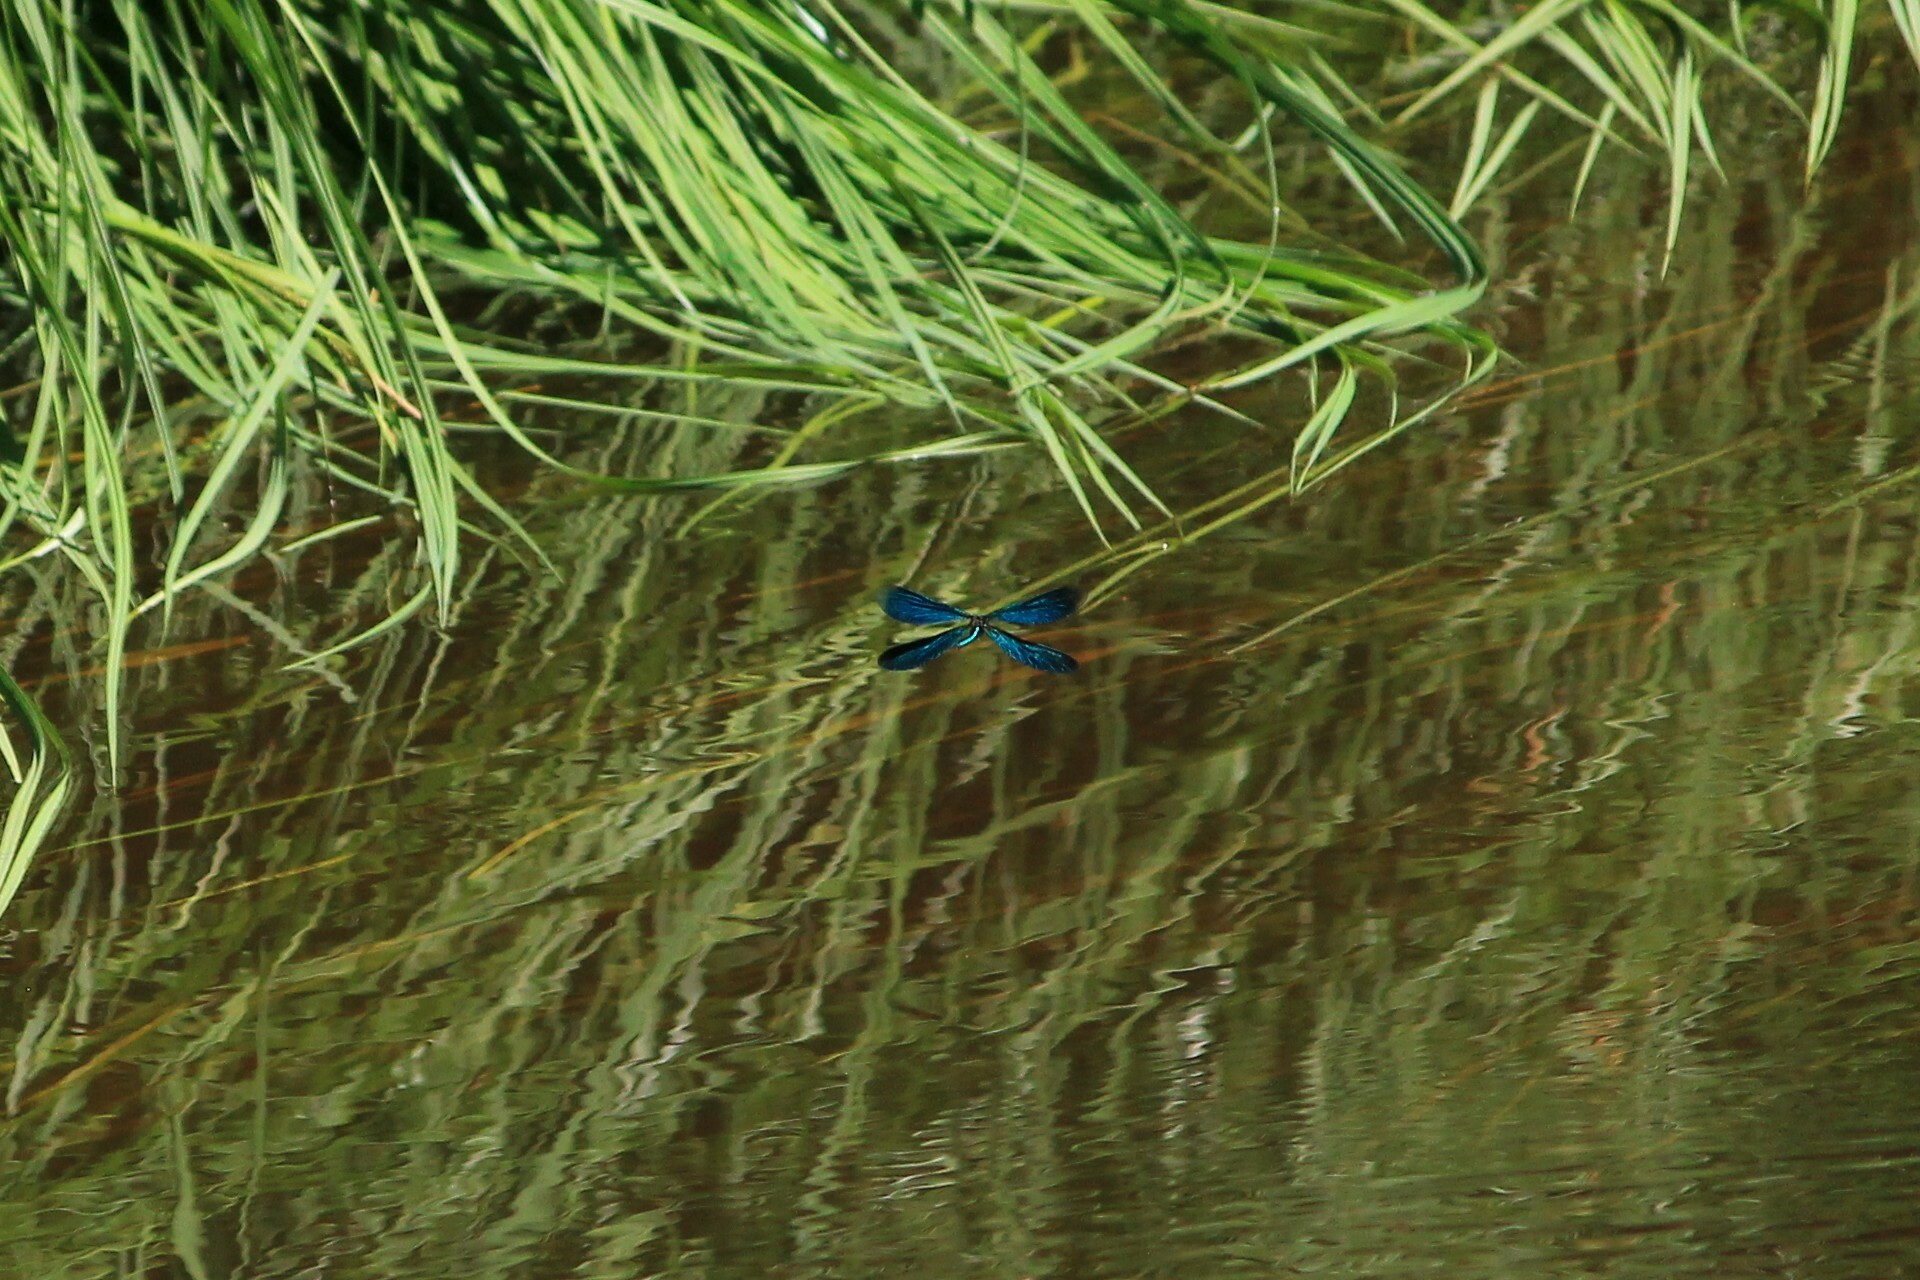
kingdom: Animalia
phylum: Arthropoda
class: Insecta
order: Odonata
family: Calopterygidae
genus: Calopteryx
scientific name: Calopteryx virgo
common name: Beautiful demoiselle
